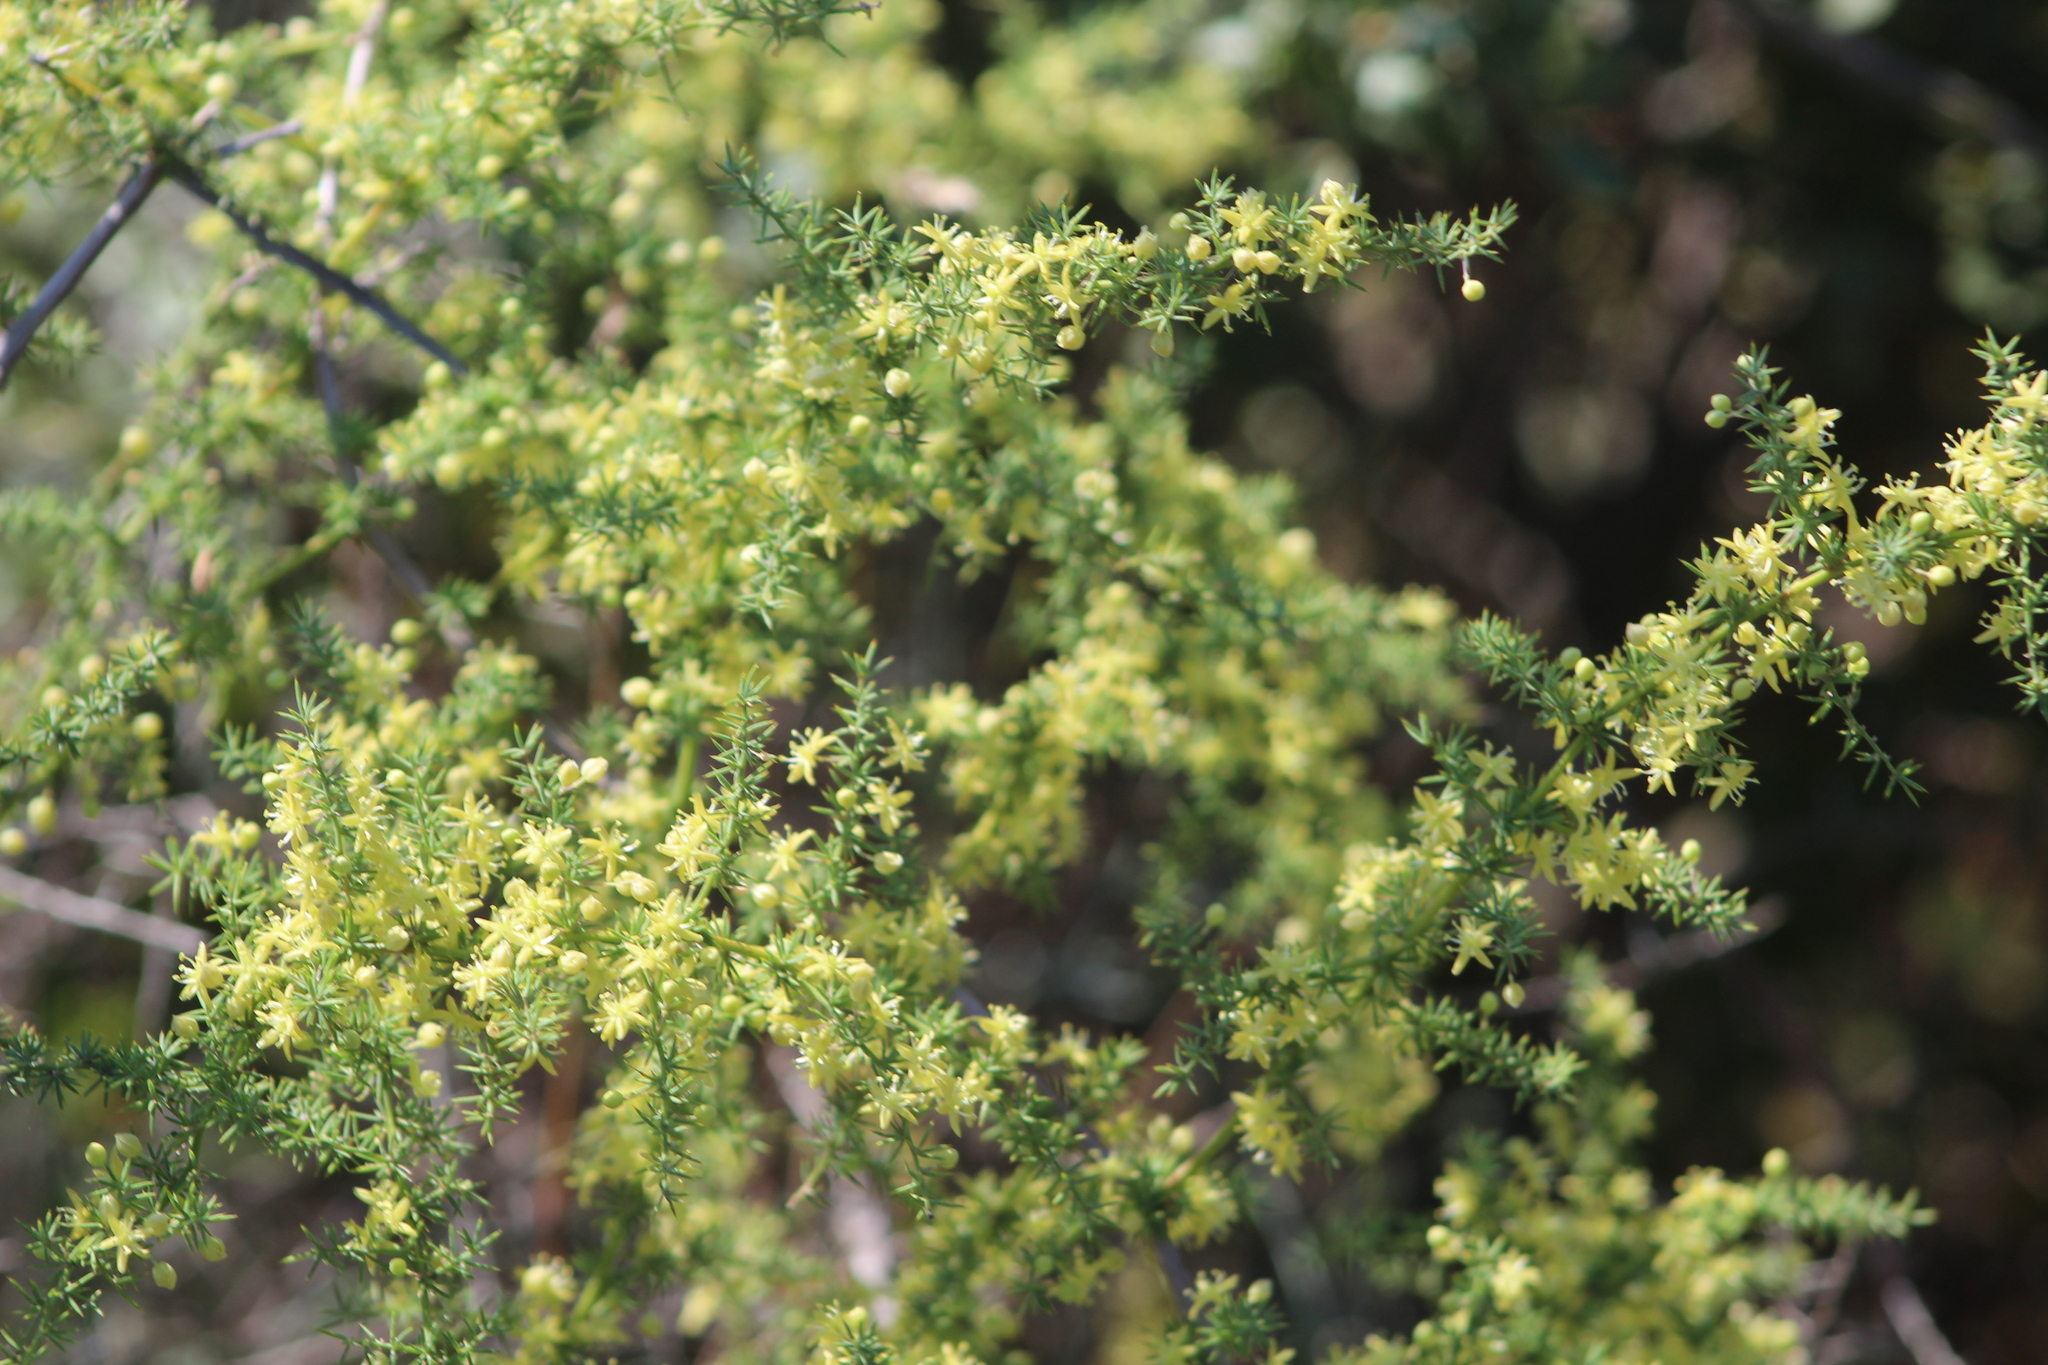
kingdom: Plantae
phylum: Tracheophyta
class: Liliopsida
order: Asparagales
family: Asparagaceae
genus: Asparagus
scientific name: Asparagus acutifolius
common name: Wild asparagus
